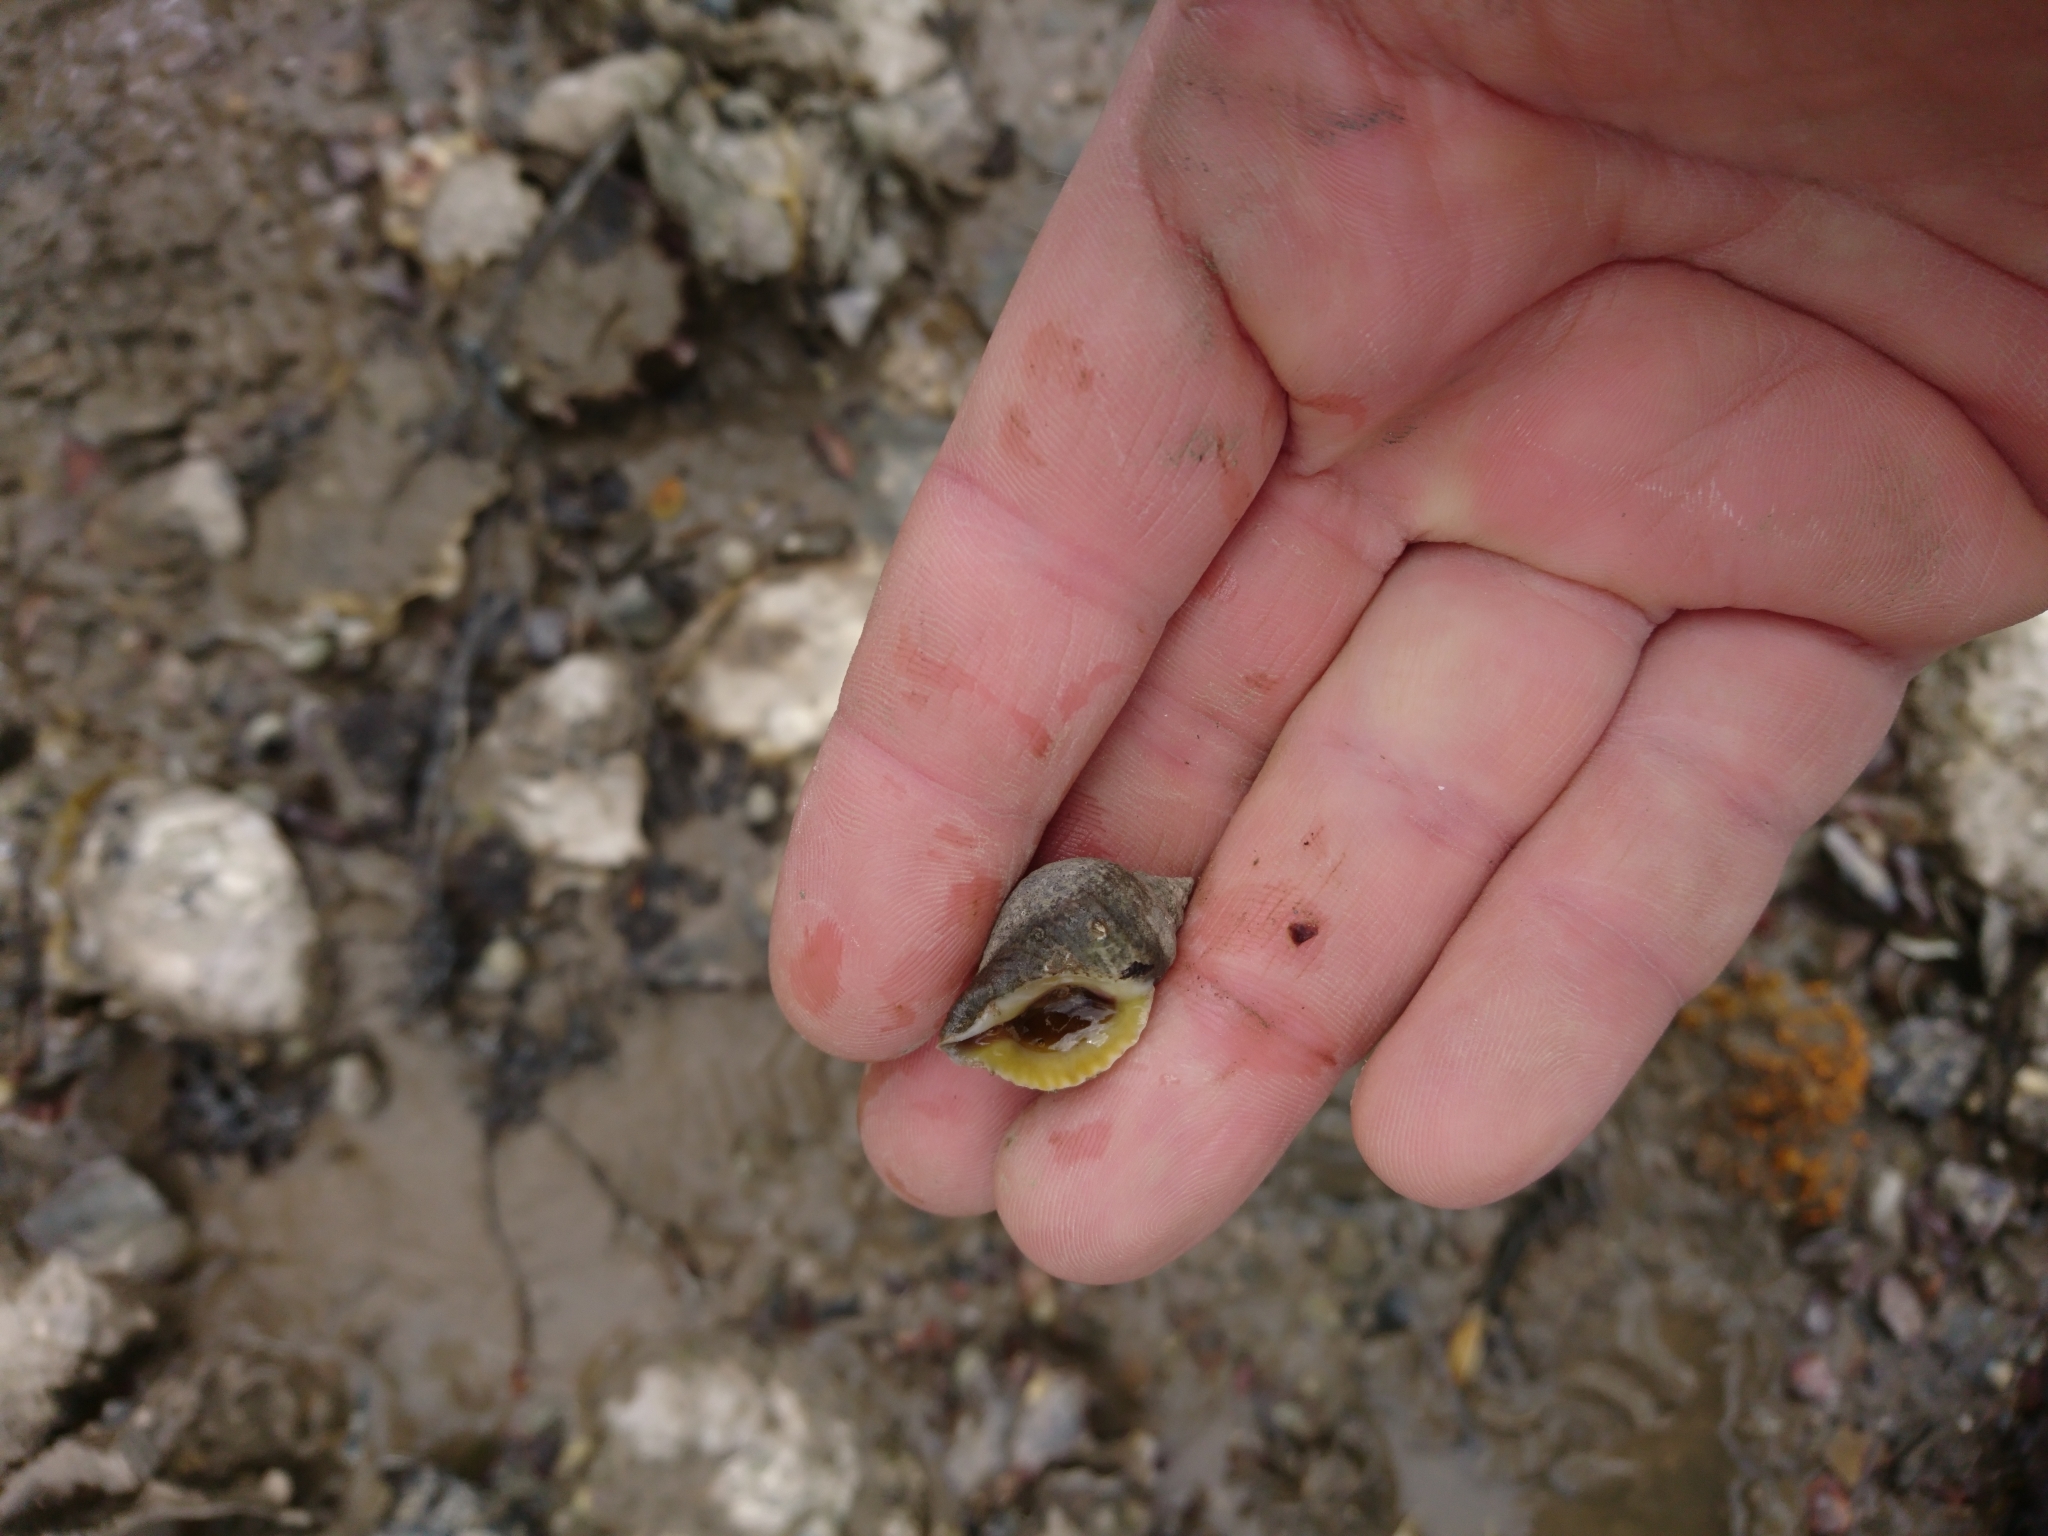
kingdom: Animalia
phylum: Mollusca
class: Gastropoda
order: Neogastropoda
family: Muricidae
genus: Nucella
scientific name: Nucella lapillus
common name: Dog whelk
